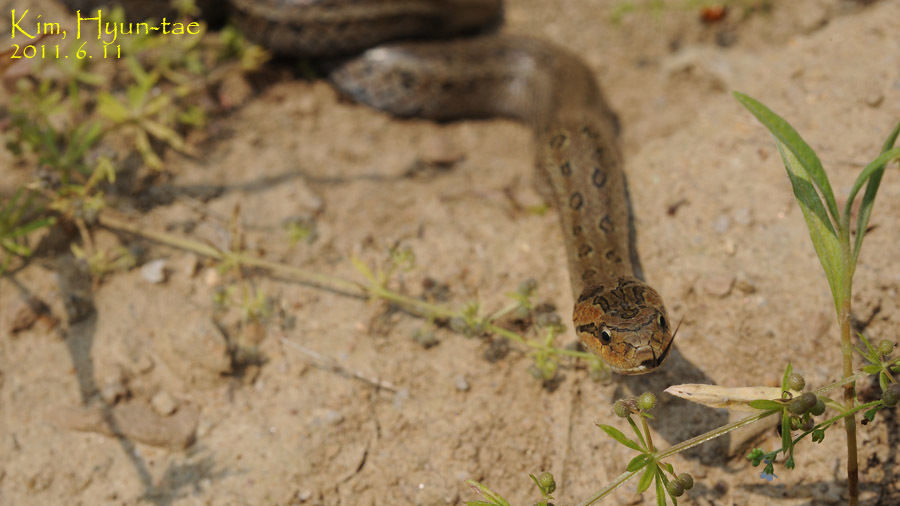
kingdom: Animalia
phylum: Chordata
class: Squamata
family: Colubridae
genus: Oocatochus
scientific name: Oocatochus rufodorsatus
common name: Frog-eating rat snake
